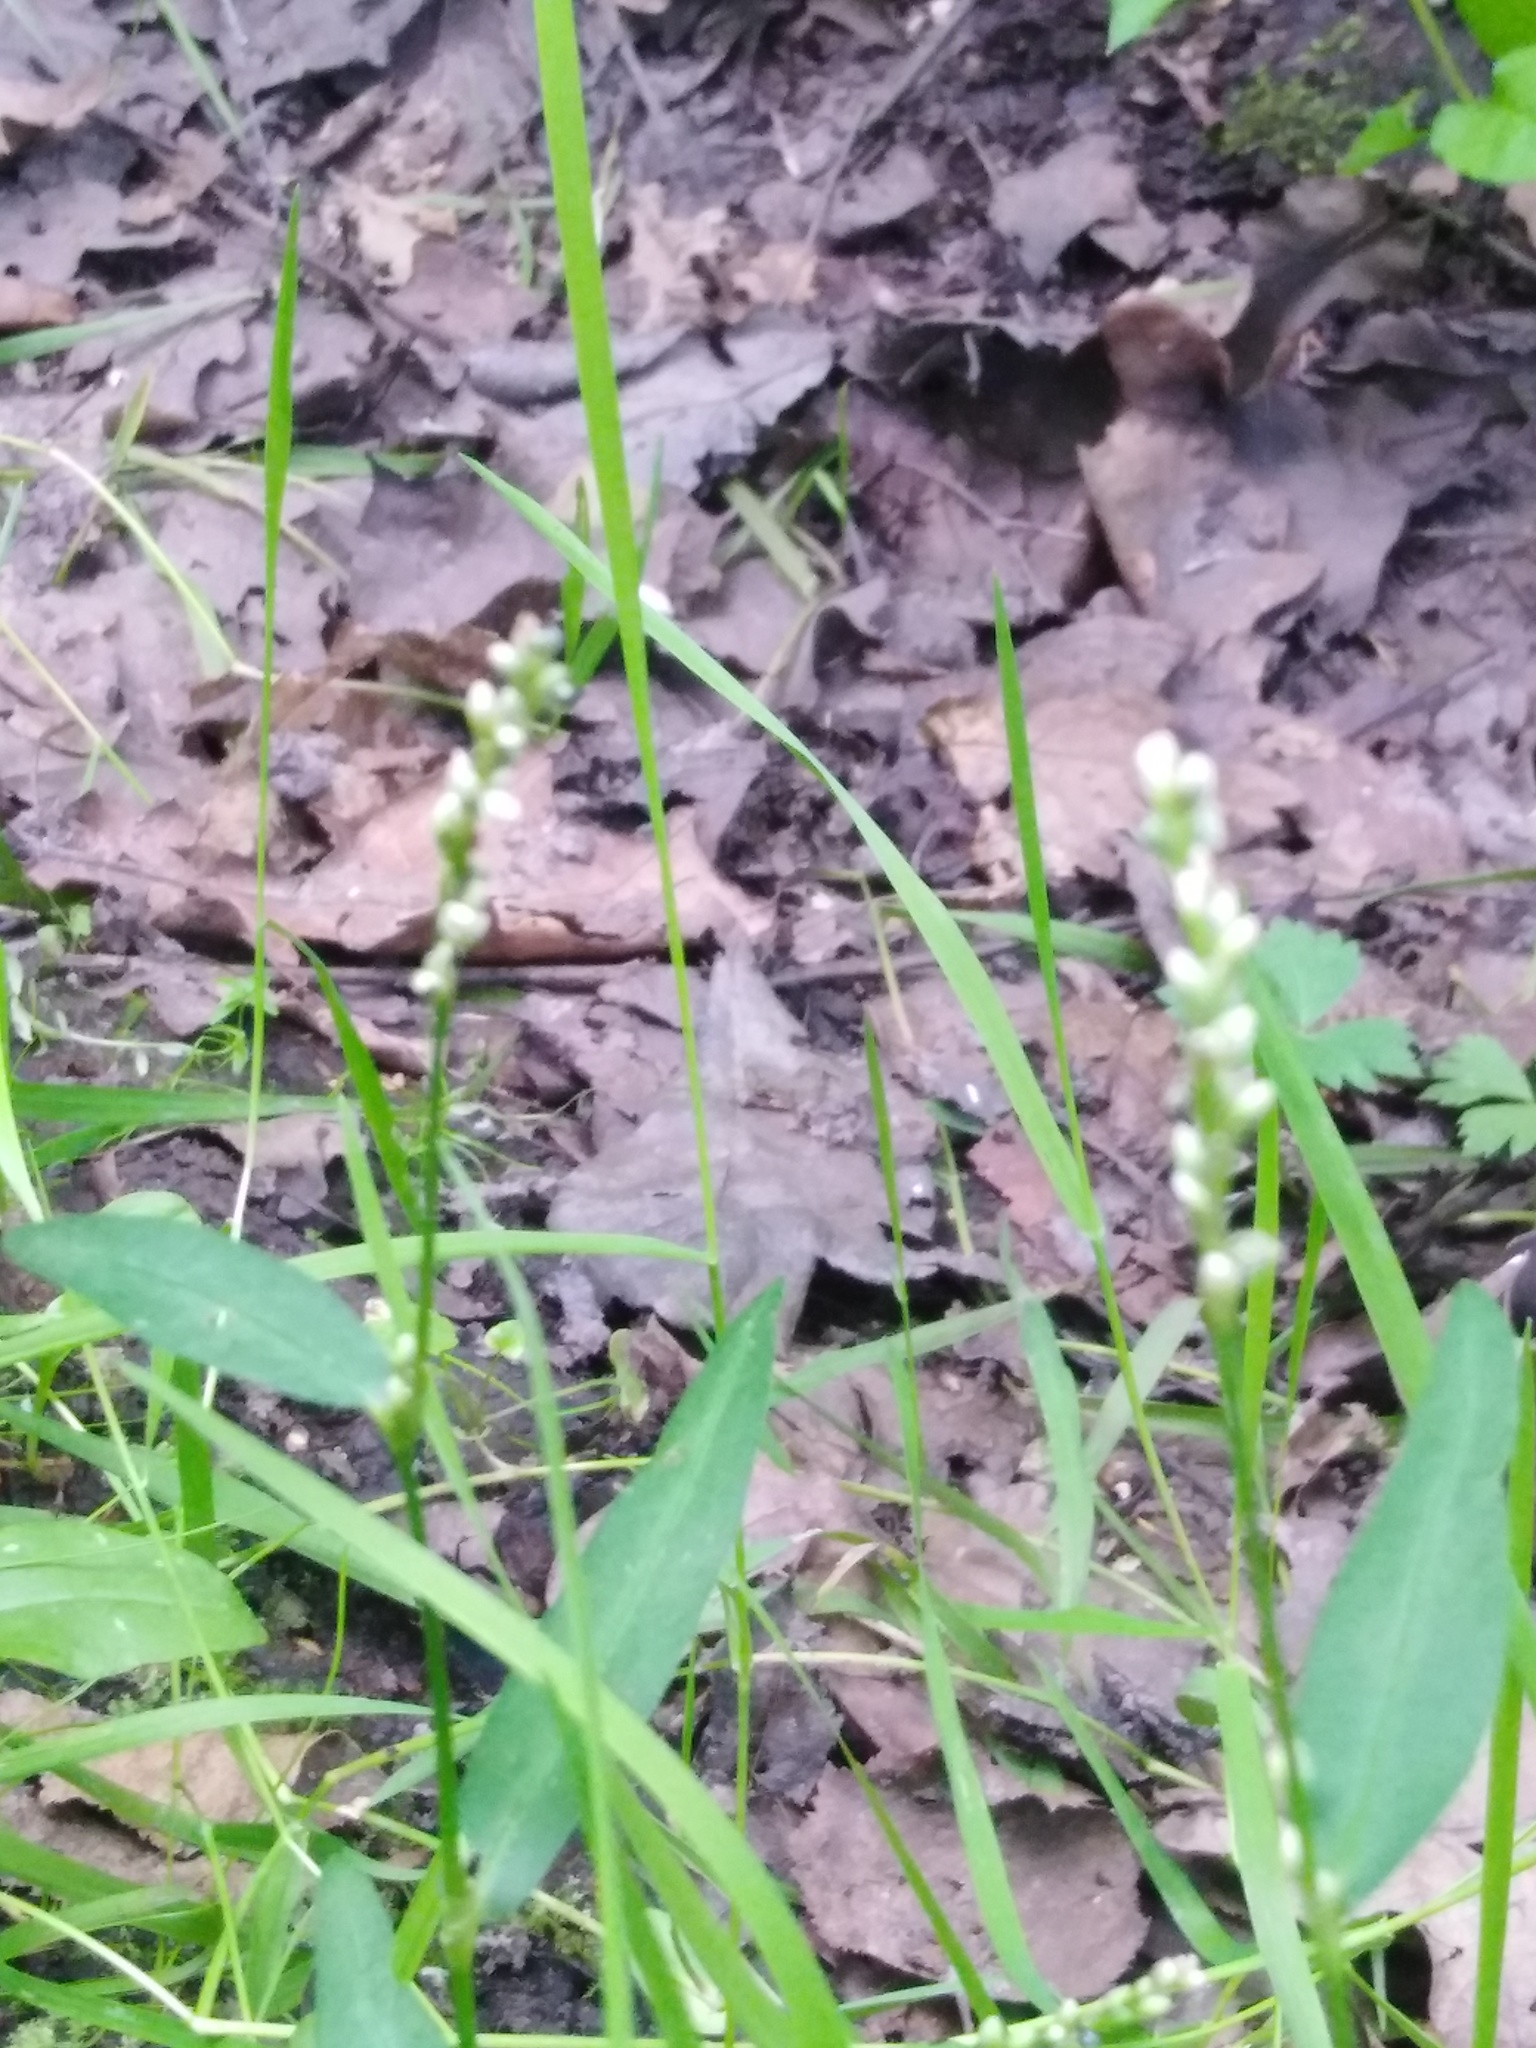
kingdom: Plantae
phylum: Tracheophyta
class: Magnoliopsida
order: Caryophyllales
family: Polygonaceae
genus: Persicaria
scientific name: Persicaria minor
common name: Small water-pepper
